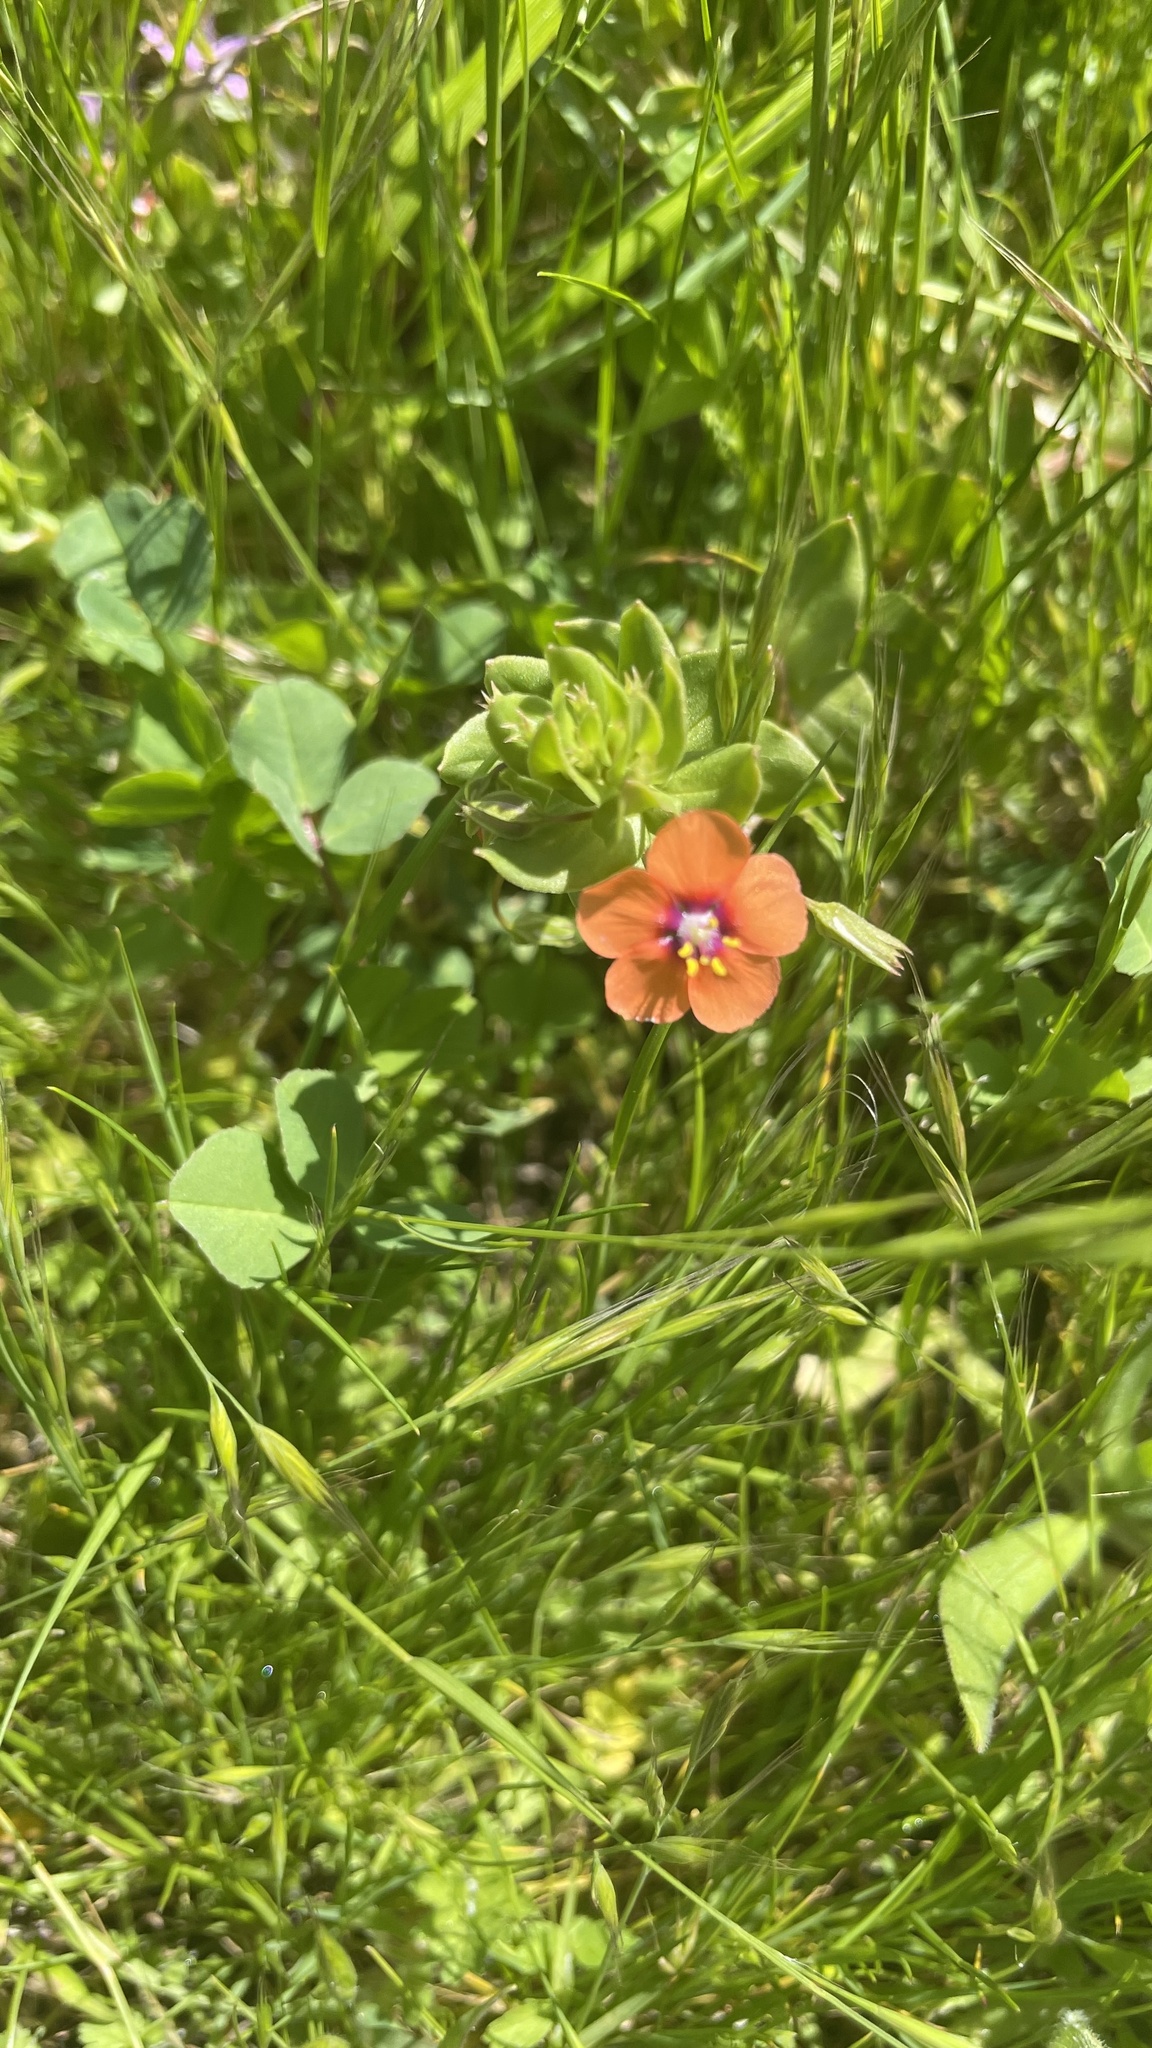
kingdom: Plantae
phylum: Tracheophyta
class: Magnoliopsida
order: Ericales
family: Primulaceae
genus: Lysimachia
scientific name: Lysimachia arvensis
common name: Scarlet pimpernel
